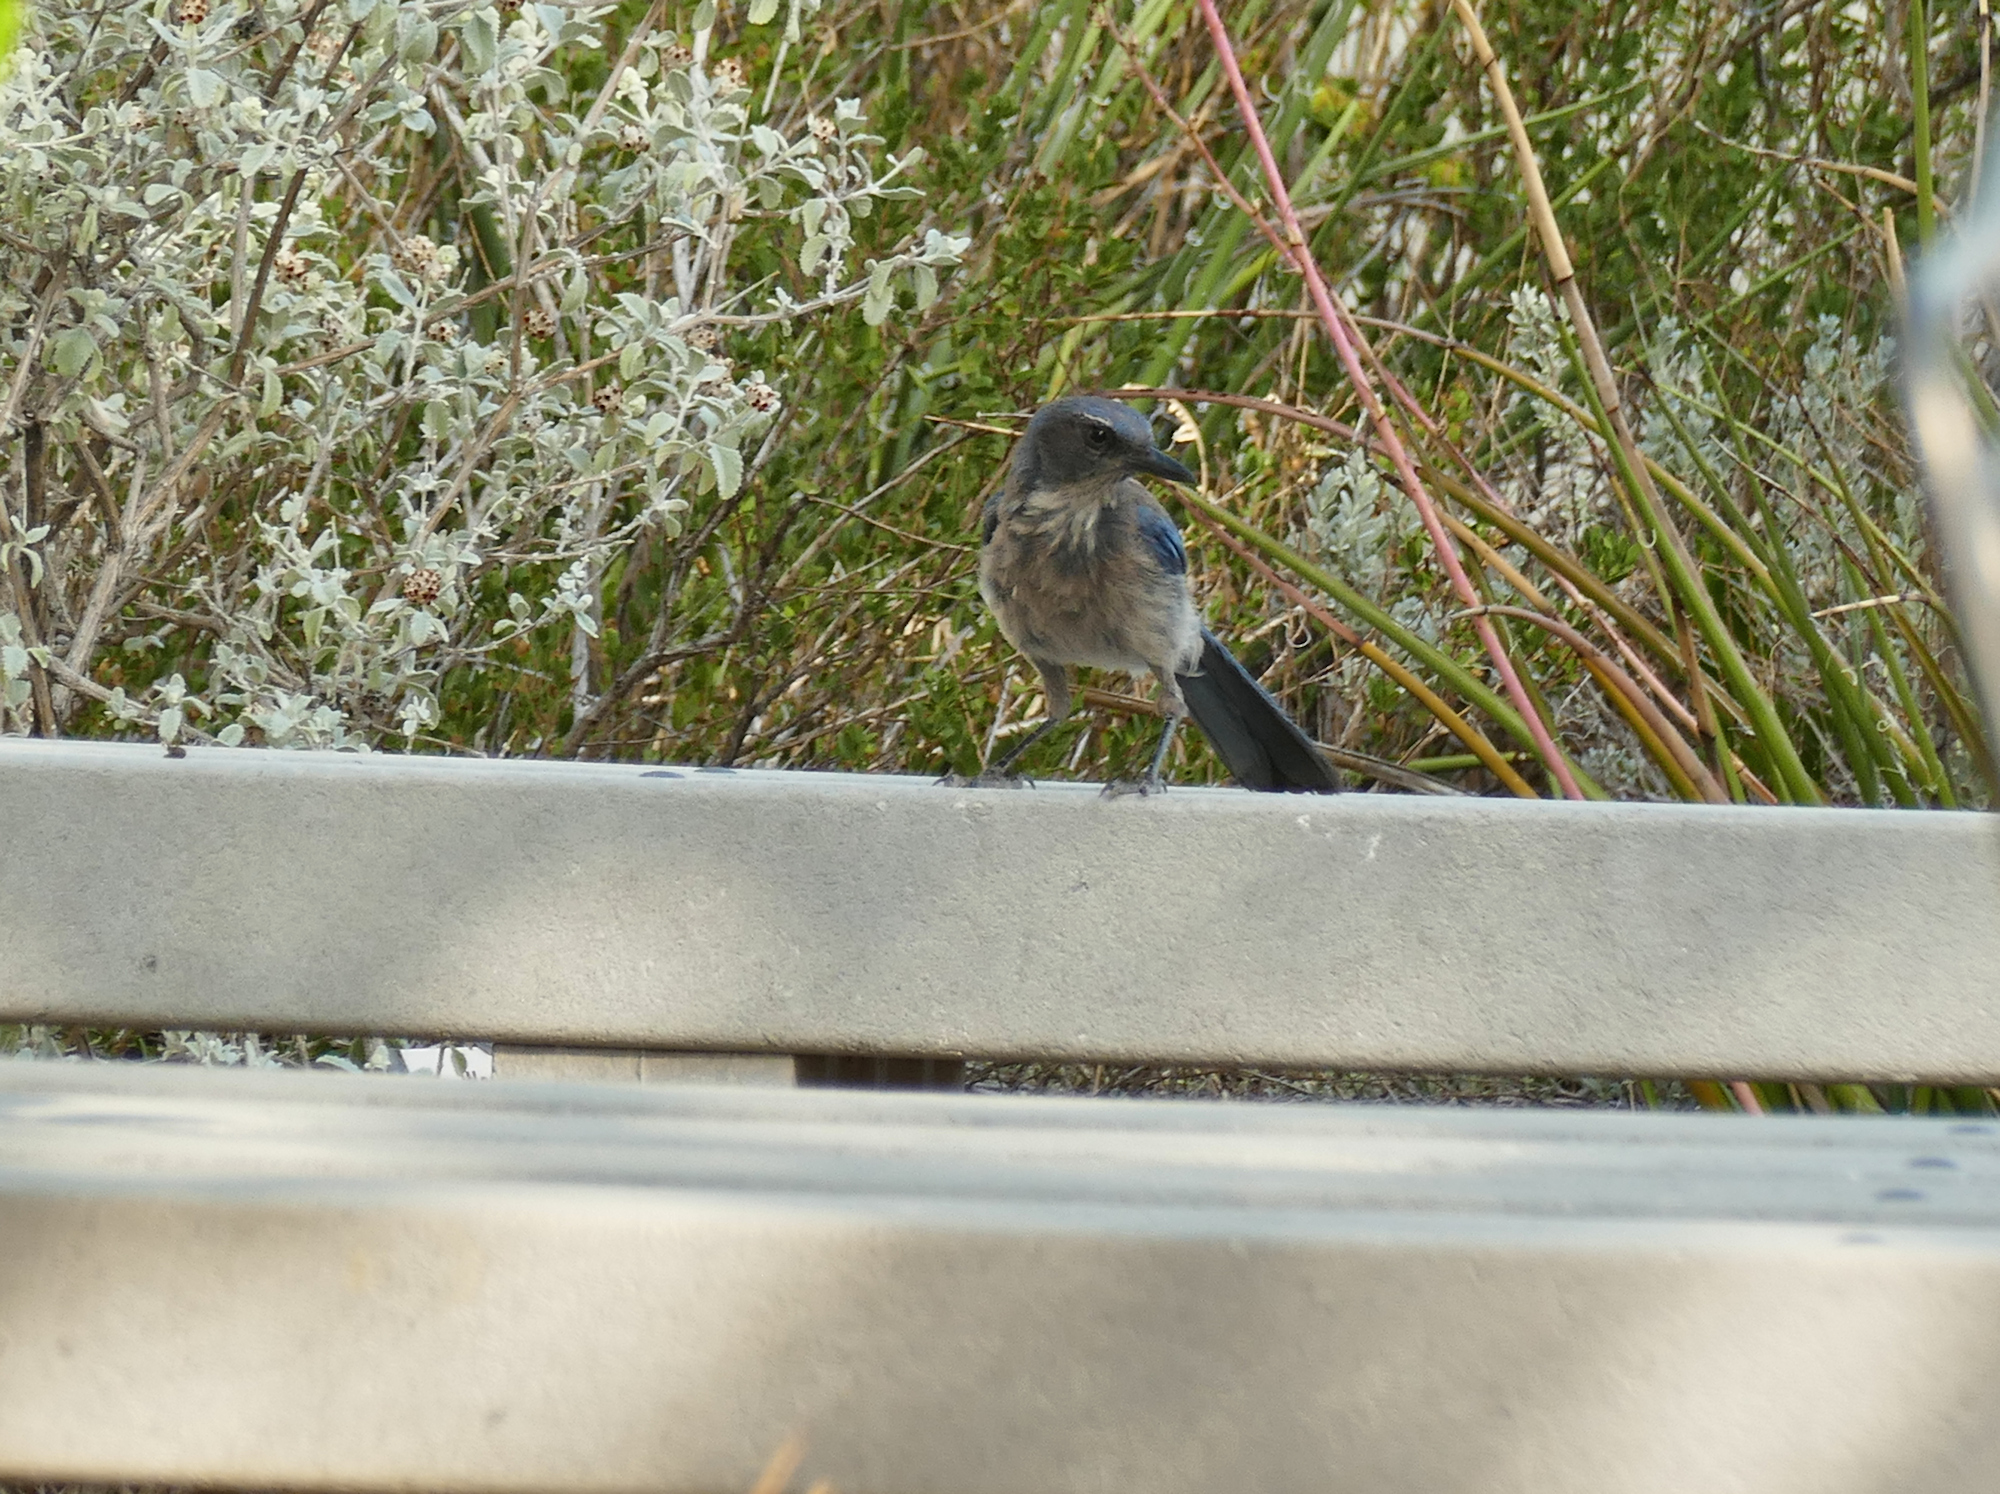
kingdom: Animalia
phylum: Chordata
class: Aves
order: Passeriformes
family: Corvidae
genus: Aphelocoma
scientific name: Aphelocoma woodhouseii
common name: Woodhouse's scrub-jay
